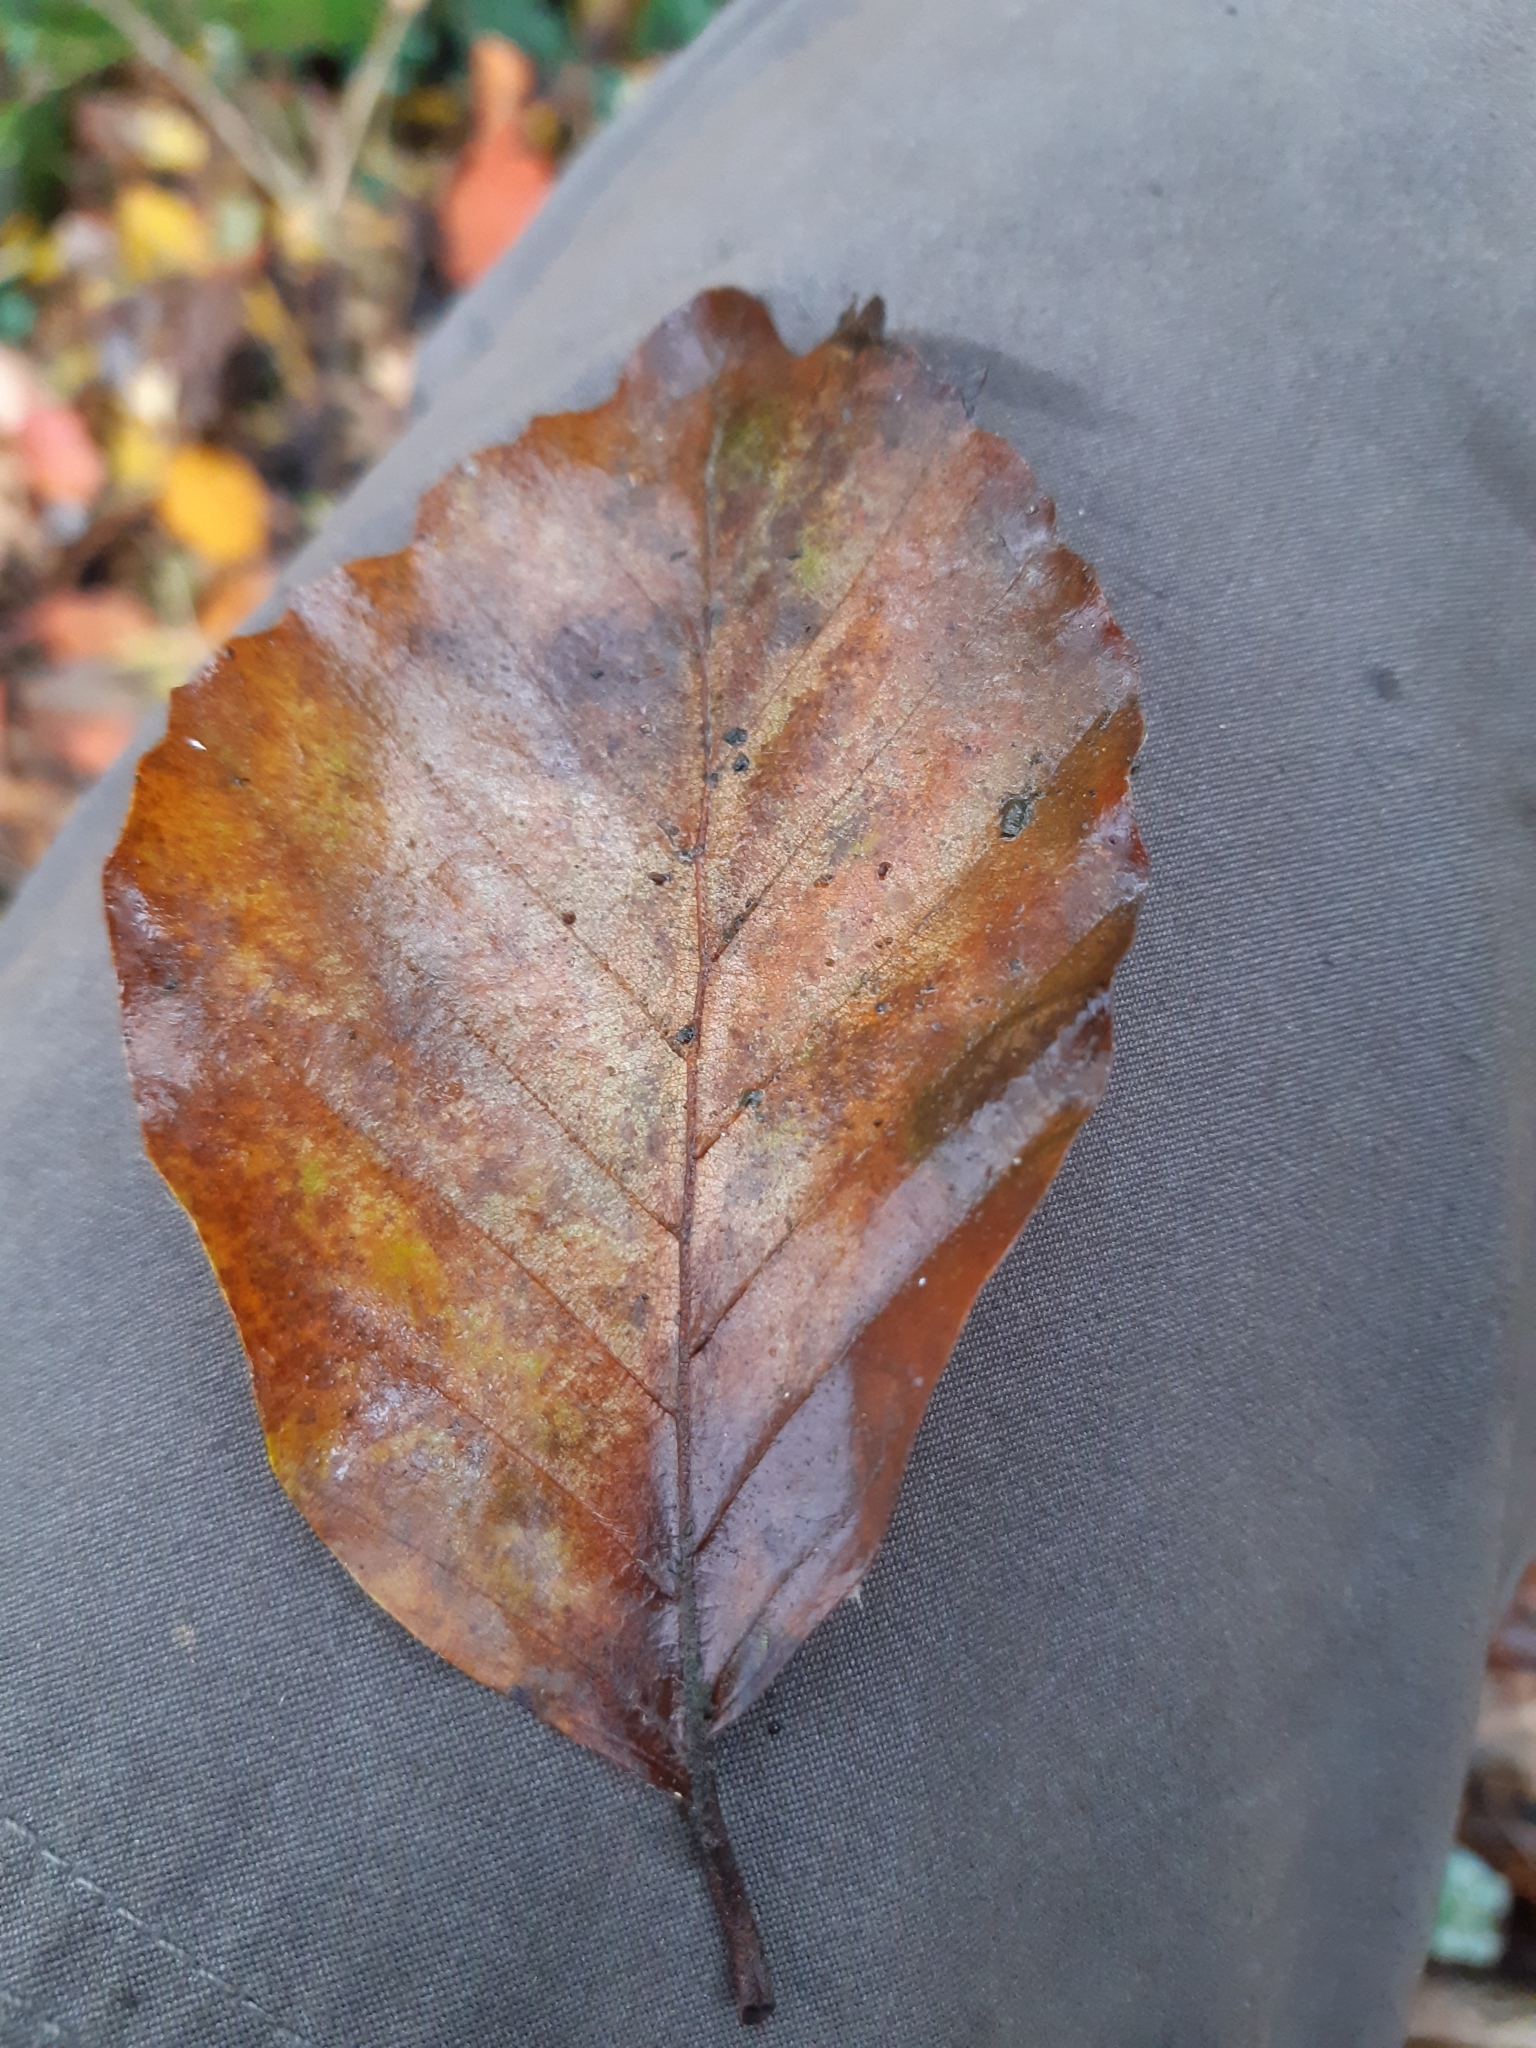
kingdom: Plantae
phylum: Tracheophyta
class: Magnoliopsida
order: Fagales
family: Fagaceae
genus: Fagus
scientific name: Fagus sylvatica
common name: Beech
